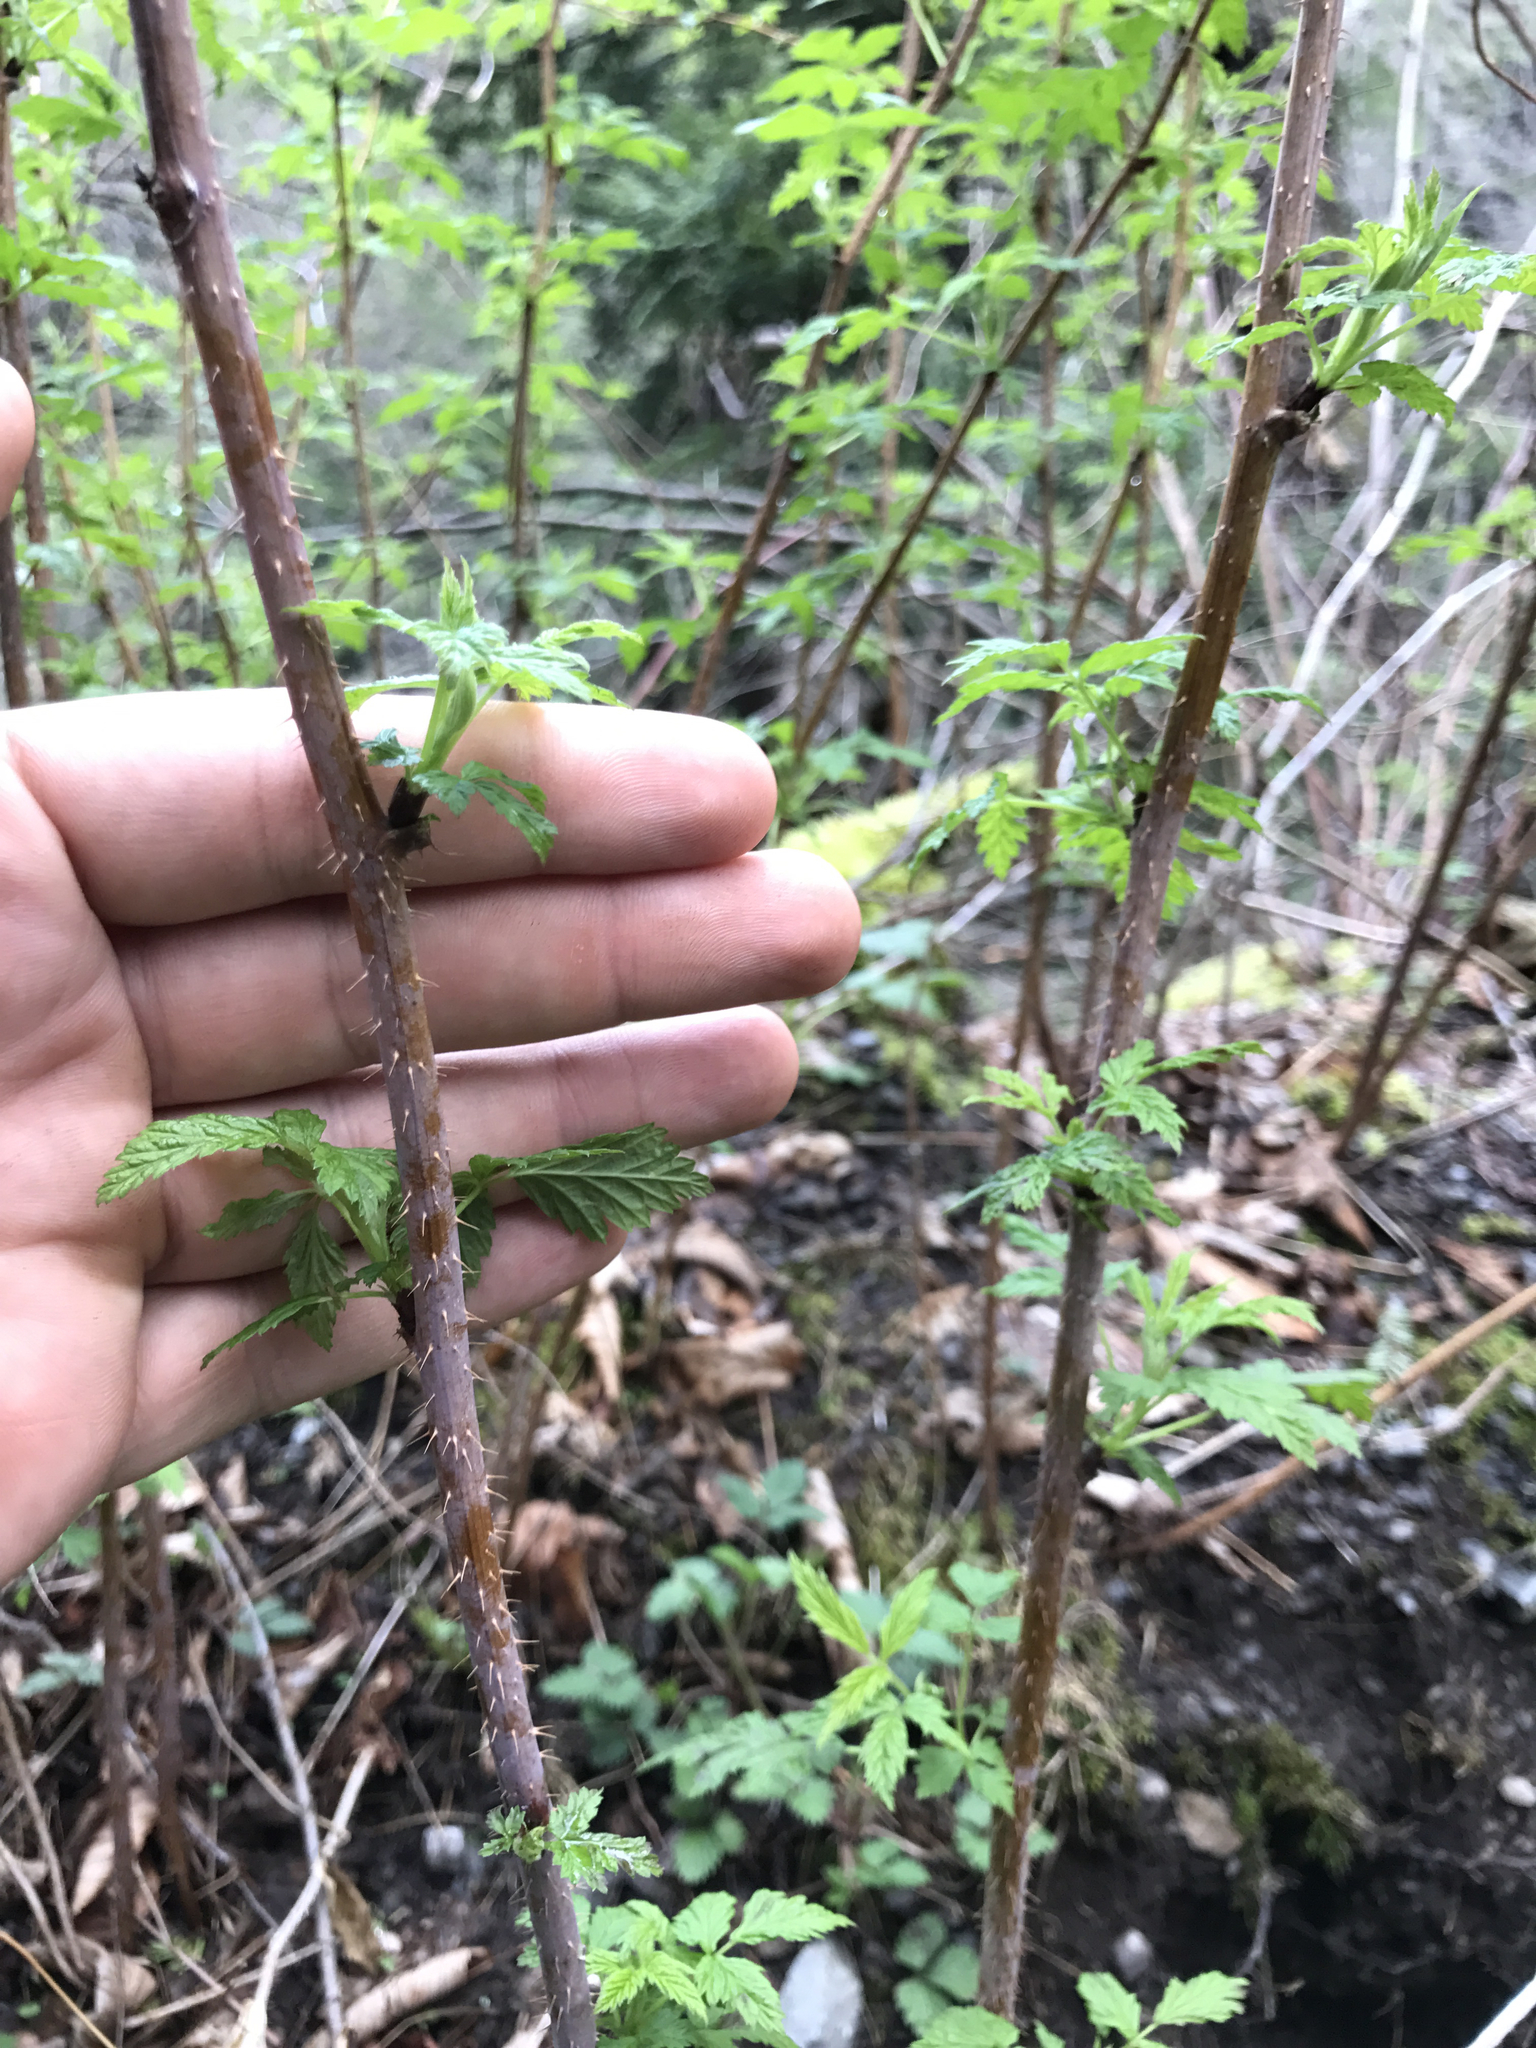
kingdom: Plantae
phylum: Tracheophyta
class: Magnoliopsida
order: Rosales
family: Rosaceae
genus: Rubus
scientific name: Rubus occidentalis
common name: Black raspberry
